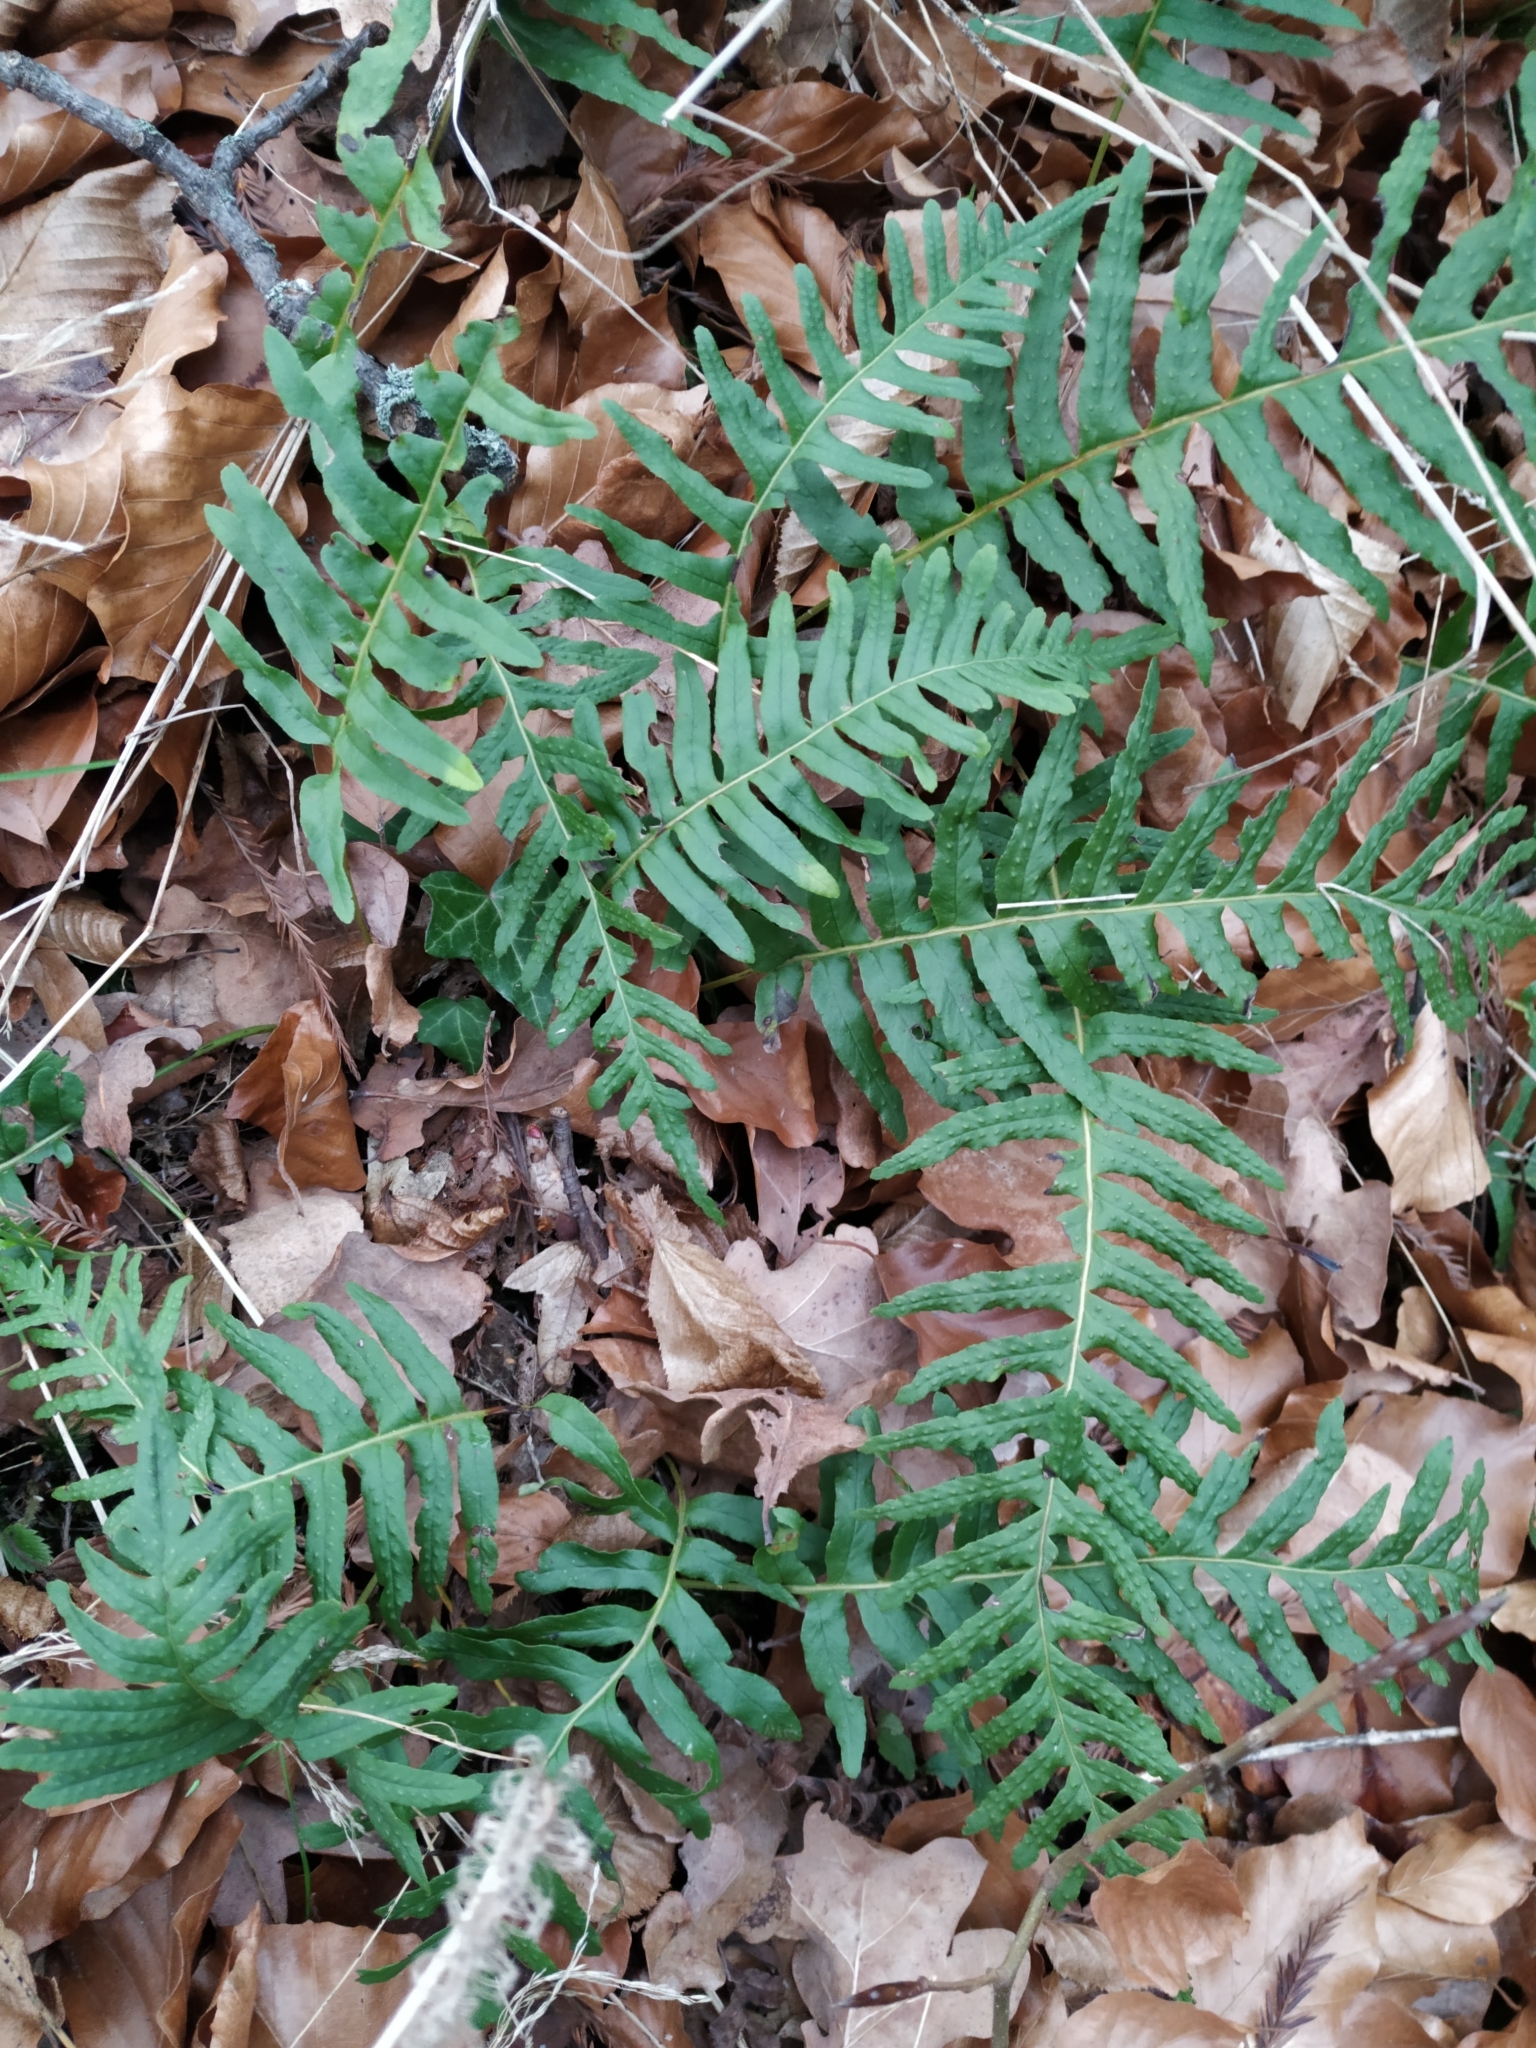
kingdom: Plantae
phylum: Tracheophyta
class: Polypodiopsida
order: Polypodiales
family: Polypodiaceae
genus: Polypodium
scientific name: Polypodium vulgare
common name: Common polypody
